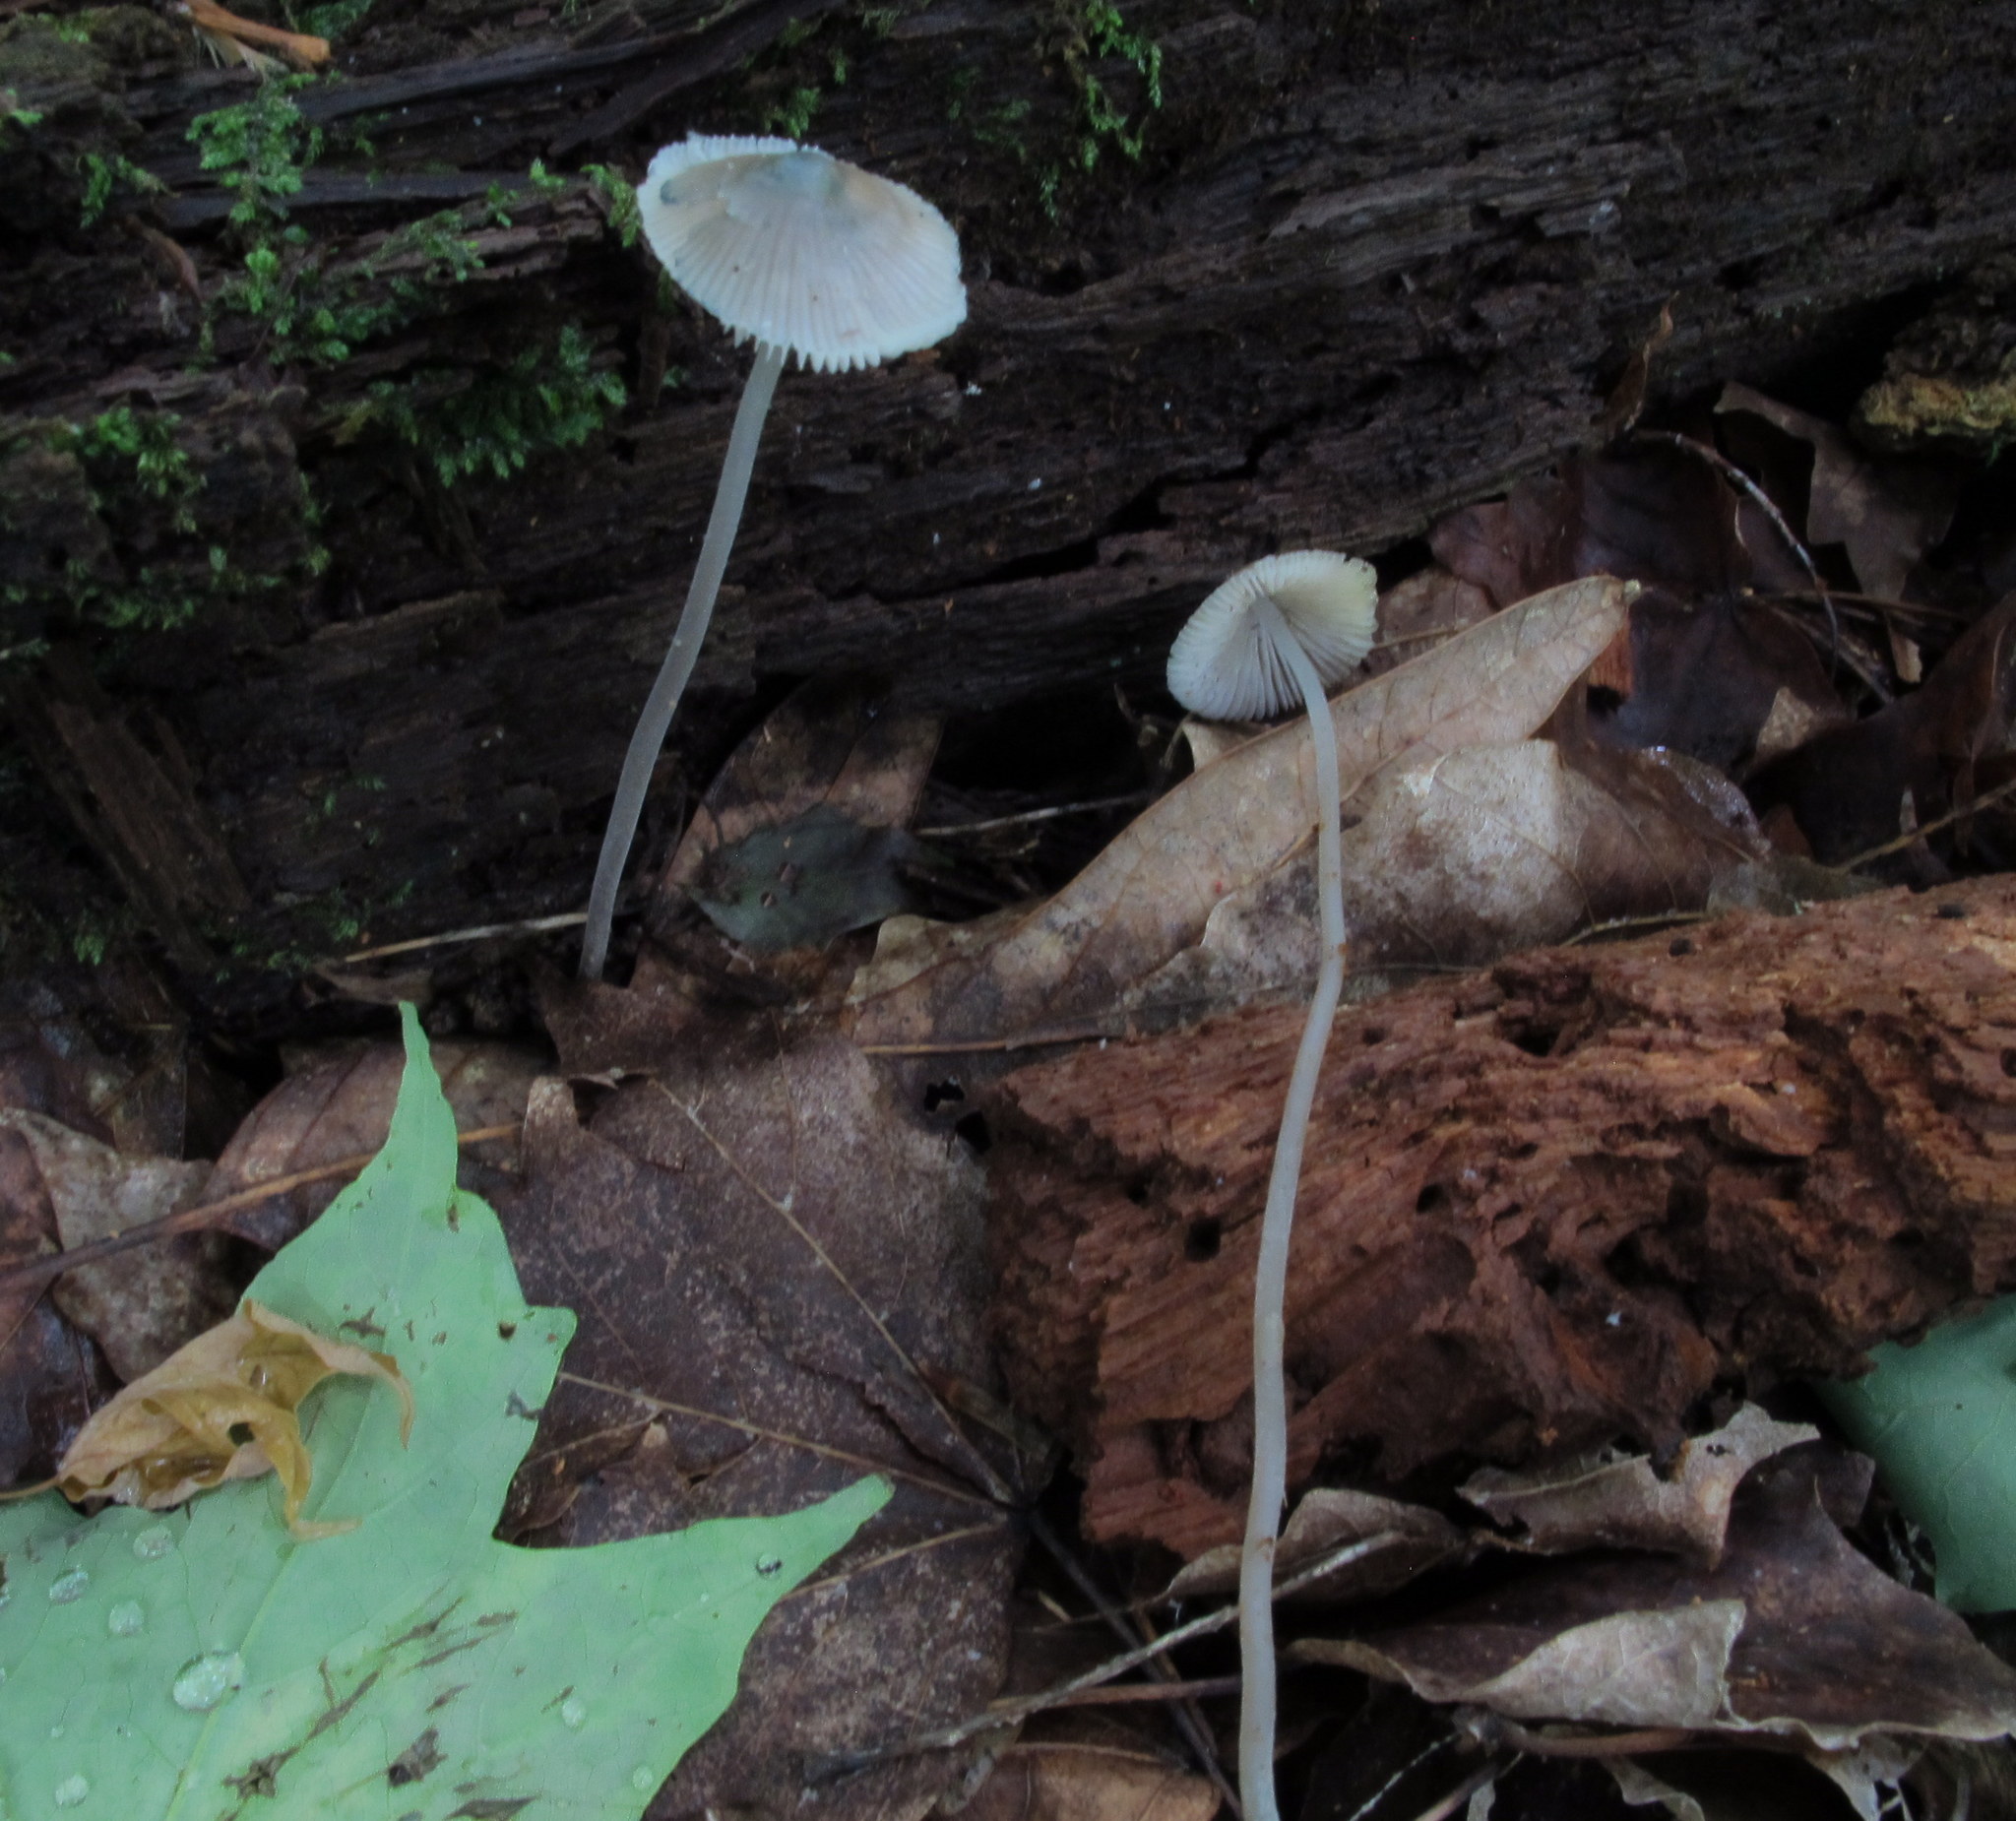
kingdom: Fungi
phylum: Basidiomycota
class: Agaricomycetes
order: Agaricales
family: Mycenaceae
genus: Mycena
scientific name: Mycena subcaerulea
